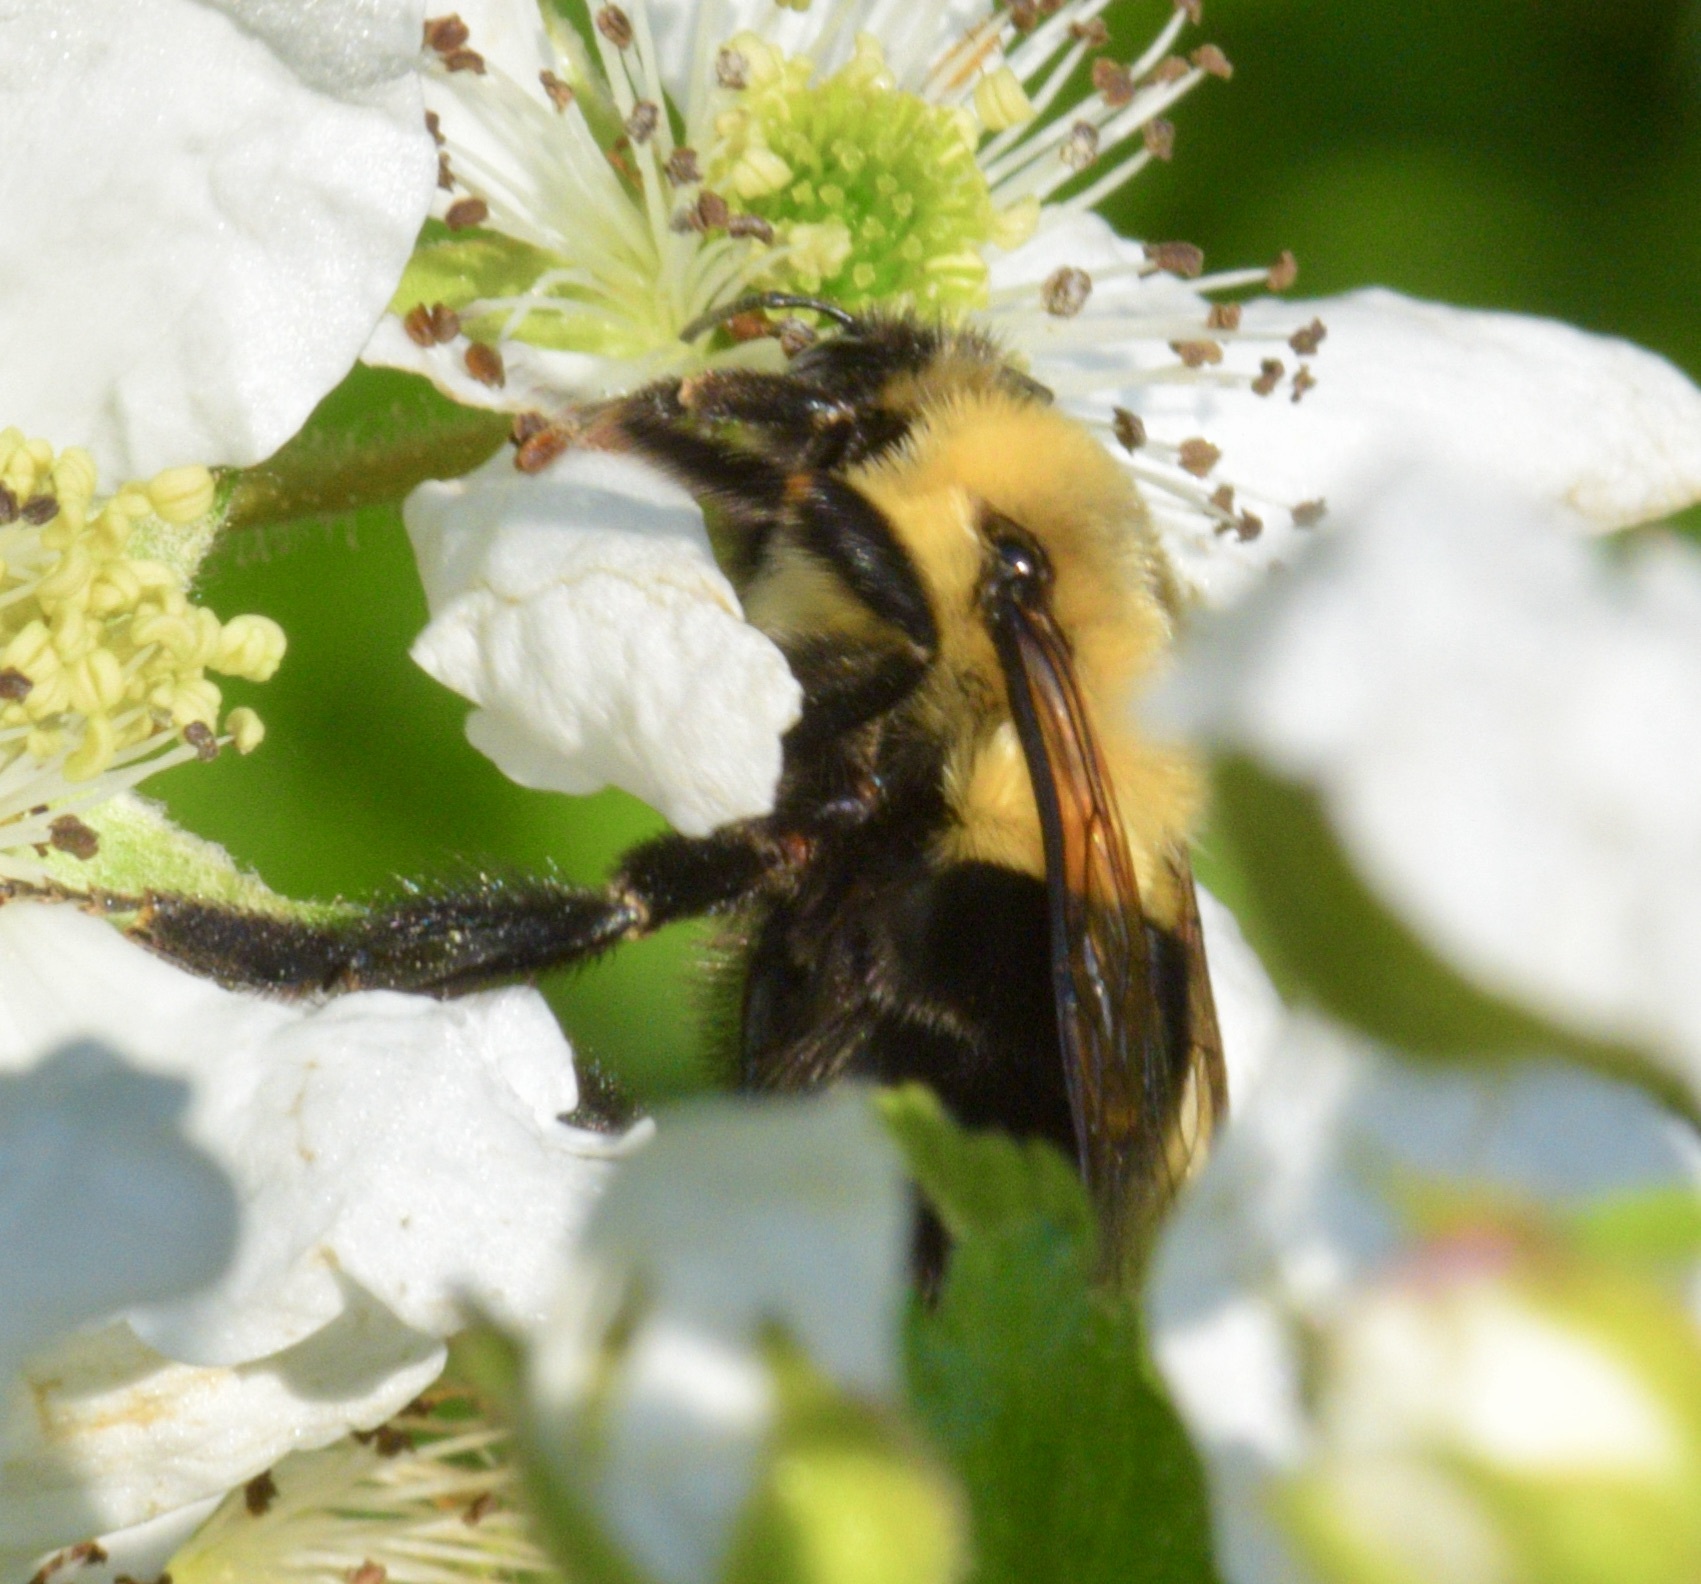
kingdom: Animalia
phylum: Arthropoda
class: Insecta
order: Hymenoptera
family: Apidae
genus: Bombus
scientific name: Bombus impatiens
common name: Common eastern bumble bee
